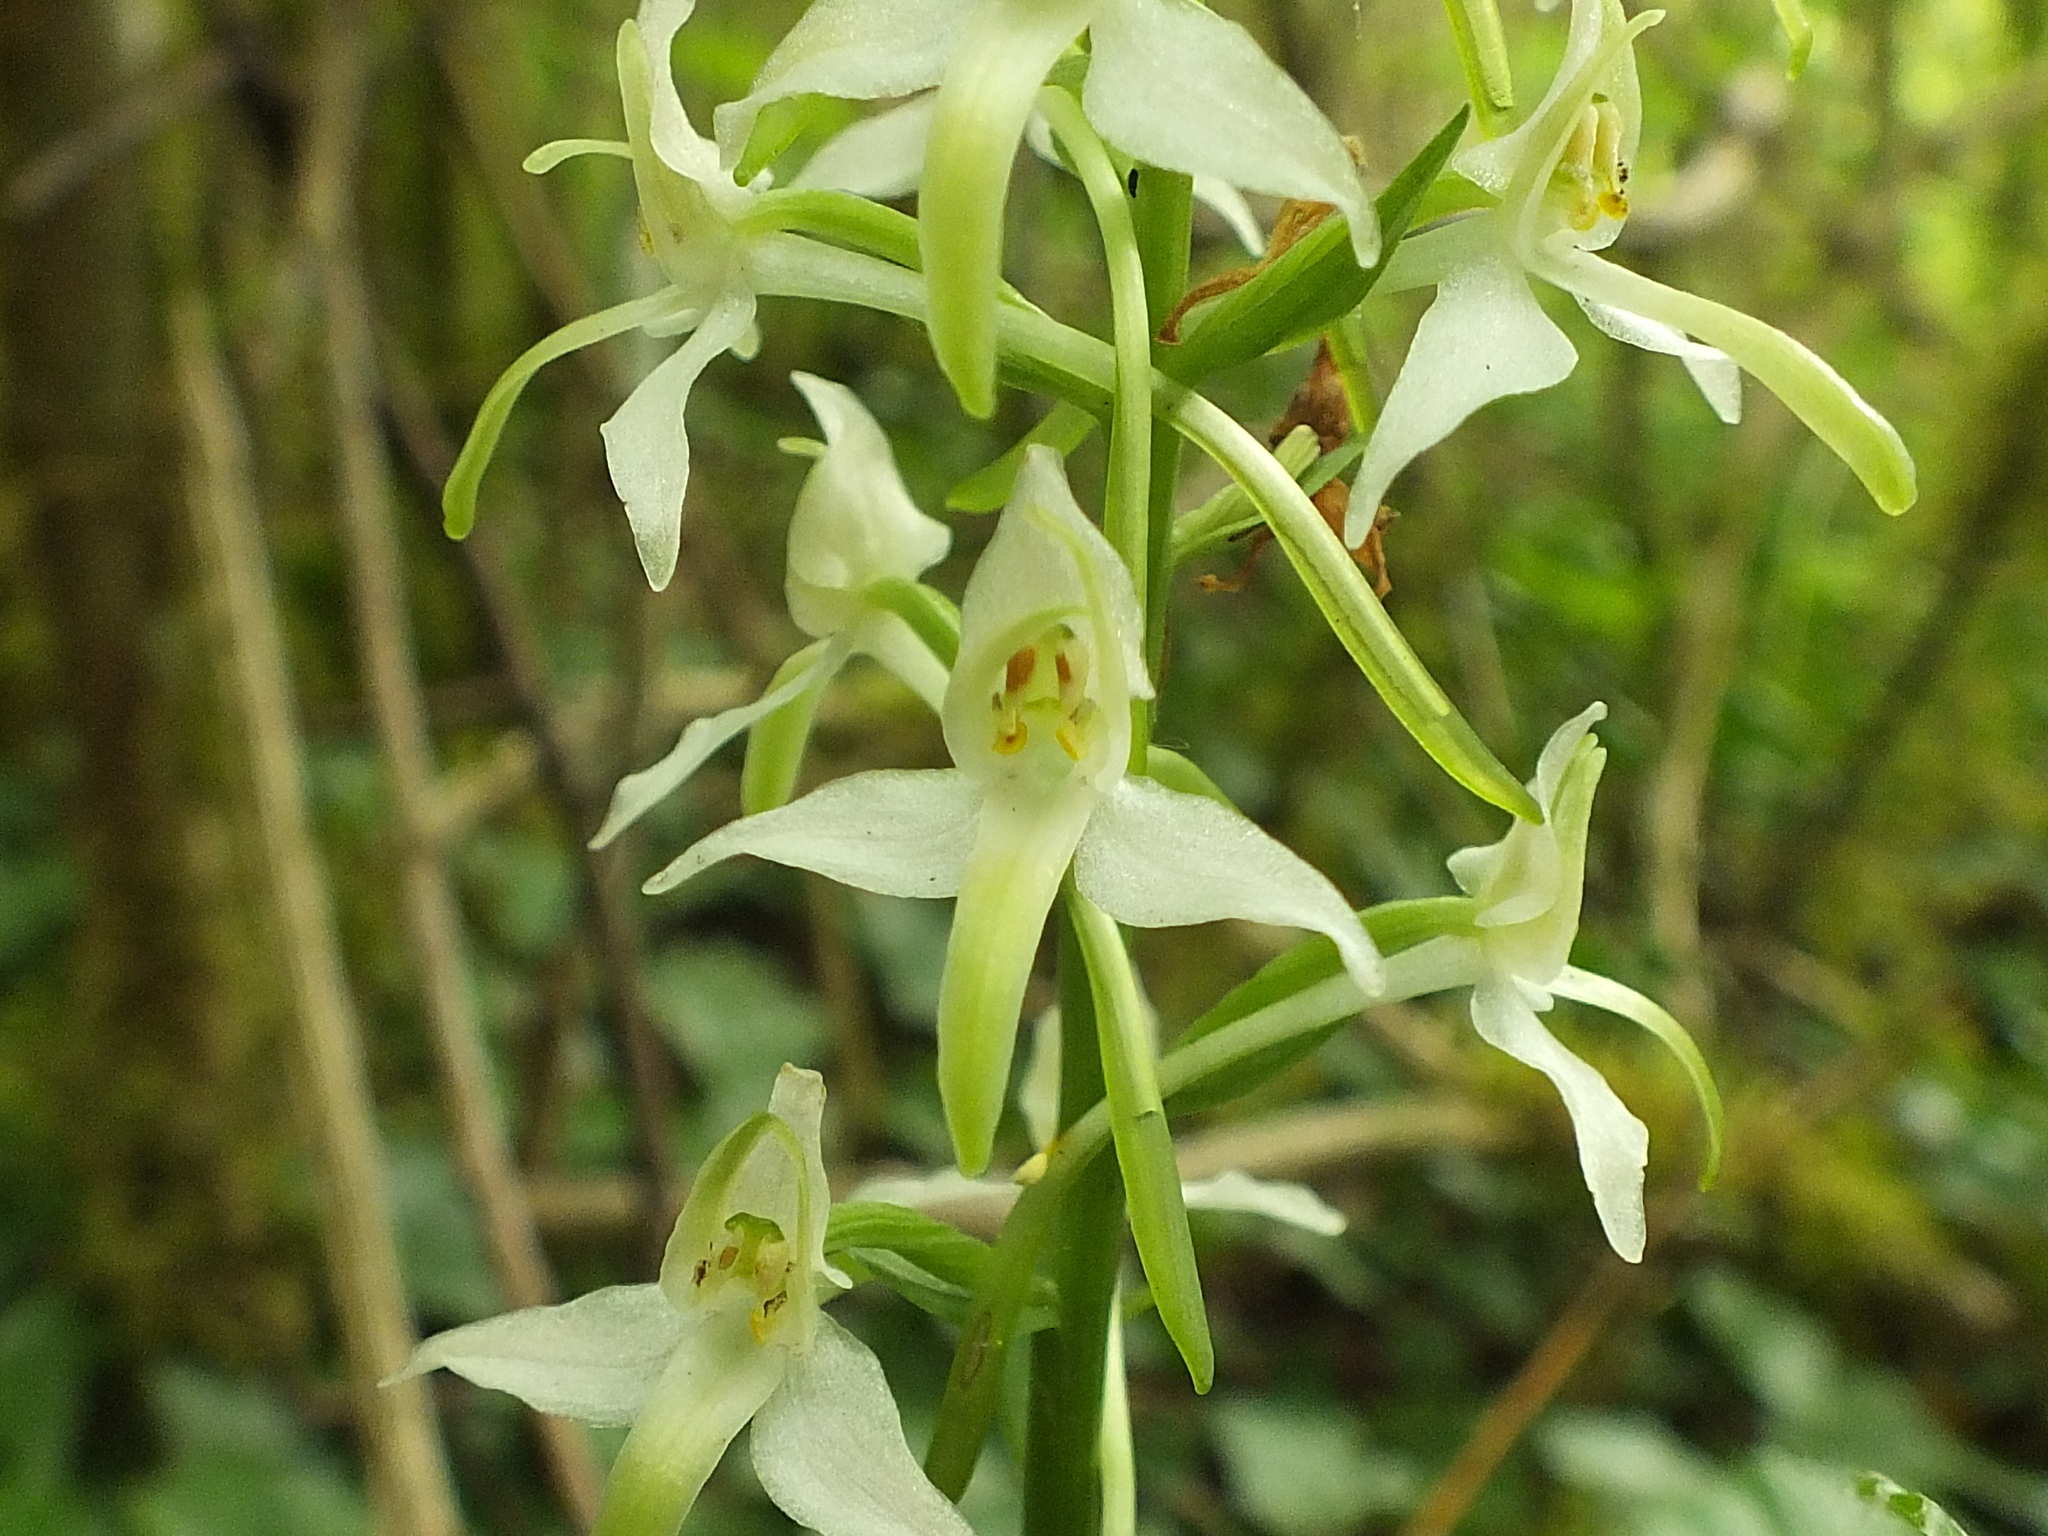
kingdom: Plantae
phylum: Tracheophyta
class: Liliopsida
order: Asparagales
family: Orchidaceae
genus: Platanthera
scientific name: Platanthera bifolia
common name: Lesser butterfly-orchid
